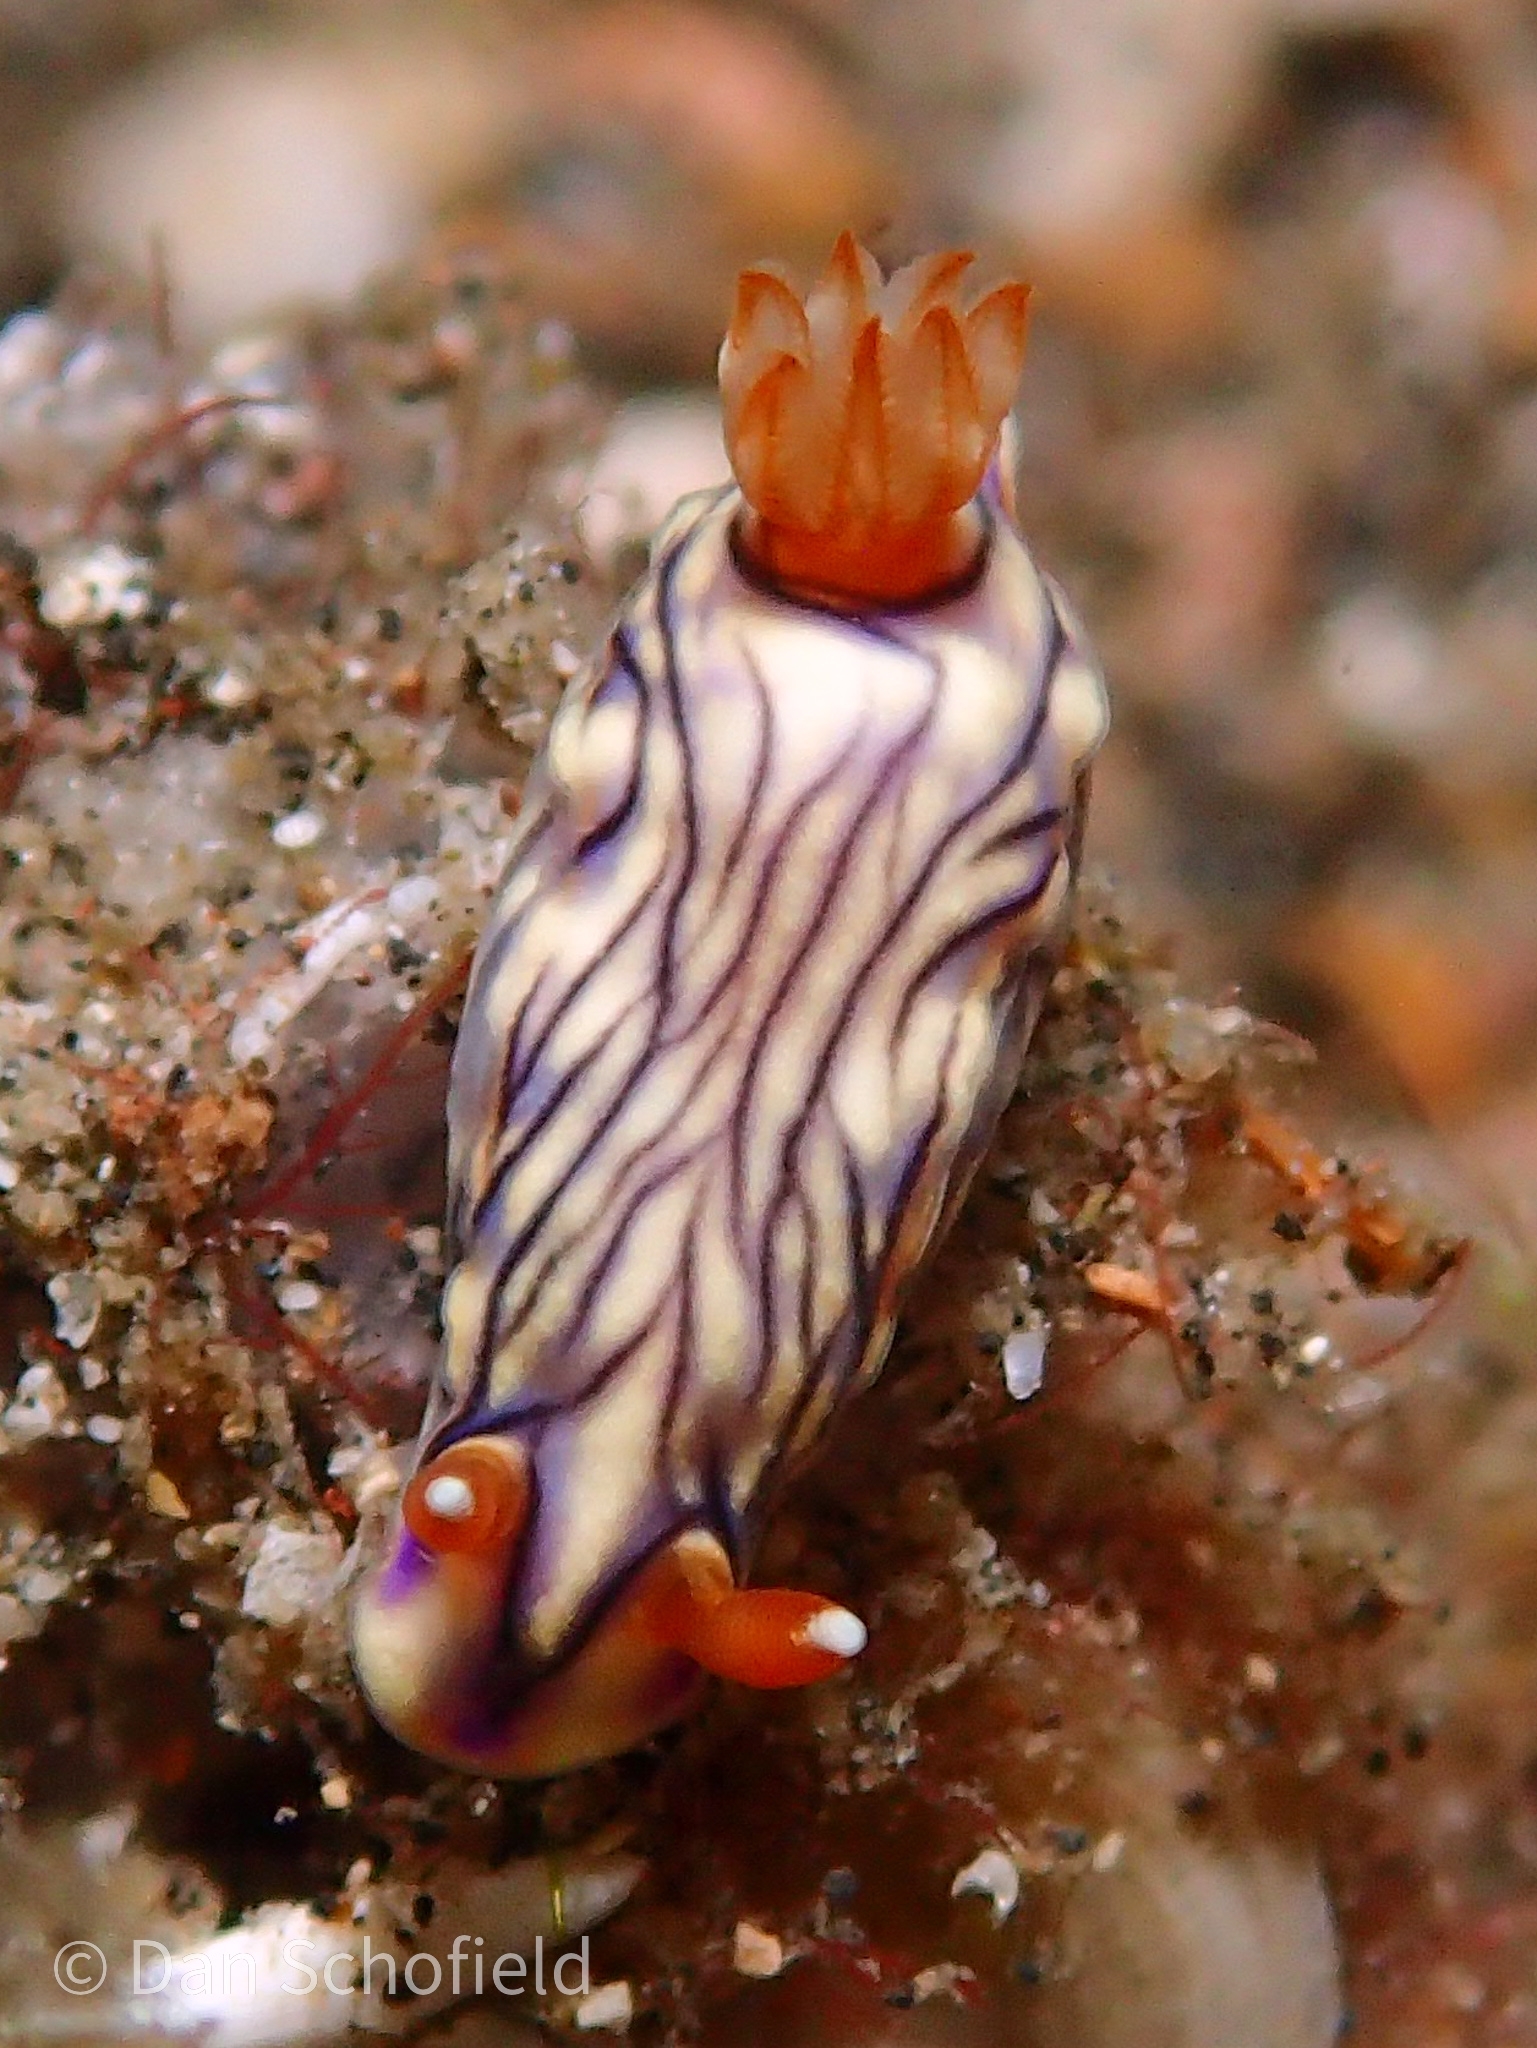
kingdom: Animalia
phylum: Mollusca
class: Gastropoda
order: Nudibranchia
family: Chromodorididae
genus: Hypselodoris
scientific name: Hypselodoris zephyra
